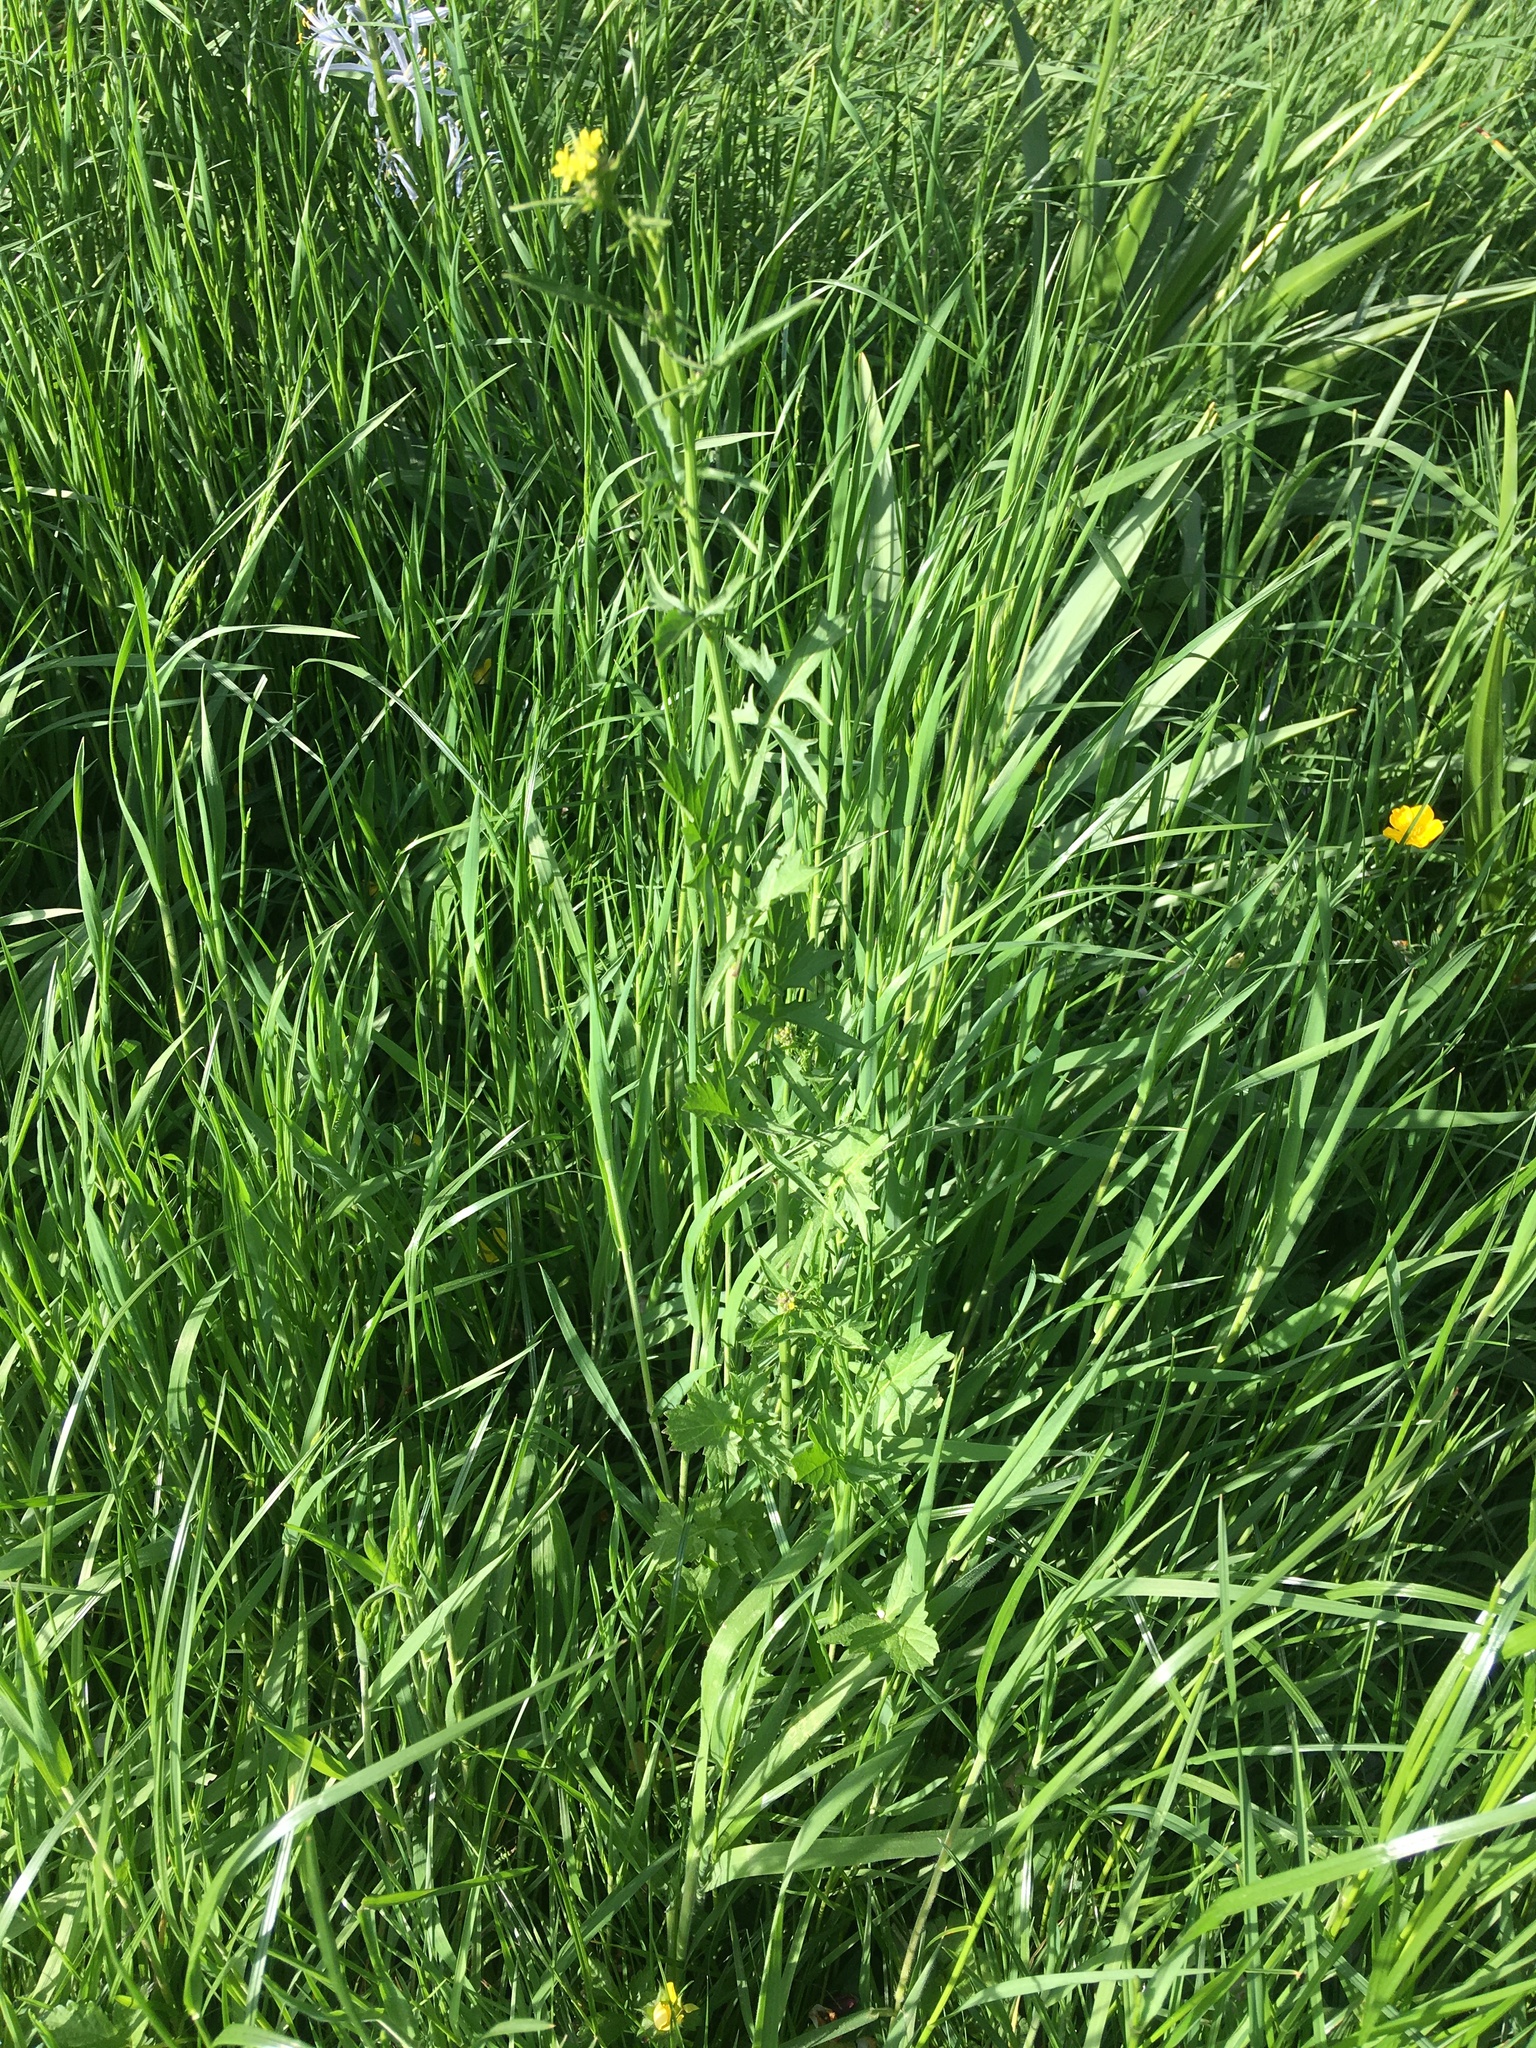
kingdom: Plantae
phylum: Tracheophyta
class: Magnoliopsida
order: Brassicales
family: Brassicaceae
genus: Sisymbrium
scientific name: Sisymbrium officinale
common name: Hedge mustard
